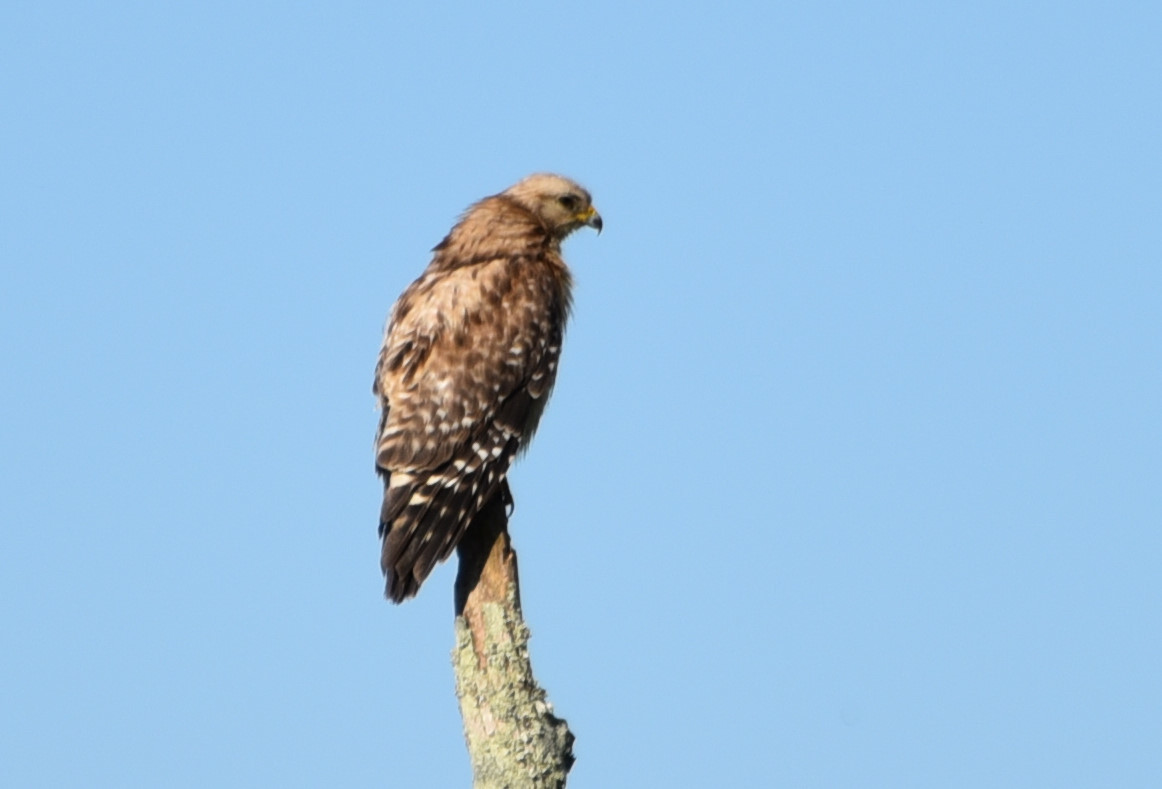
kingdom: Animalia
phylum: Chordata
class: Aves
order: Accipitriformes
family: Accipitridae
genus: Buteo
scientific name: Buteo lineatus
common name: Red-shouldered hawk
